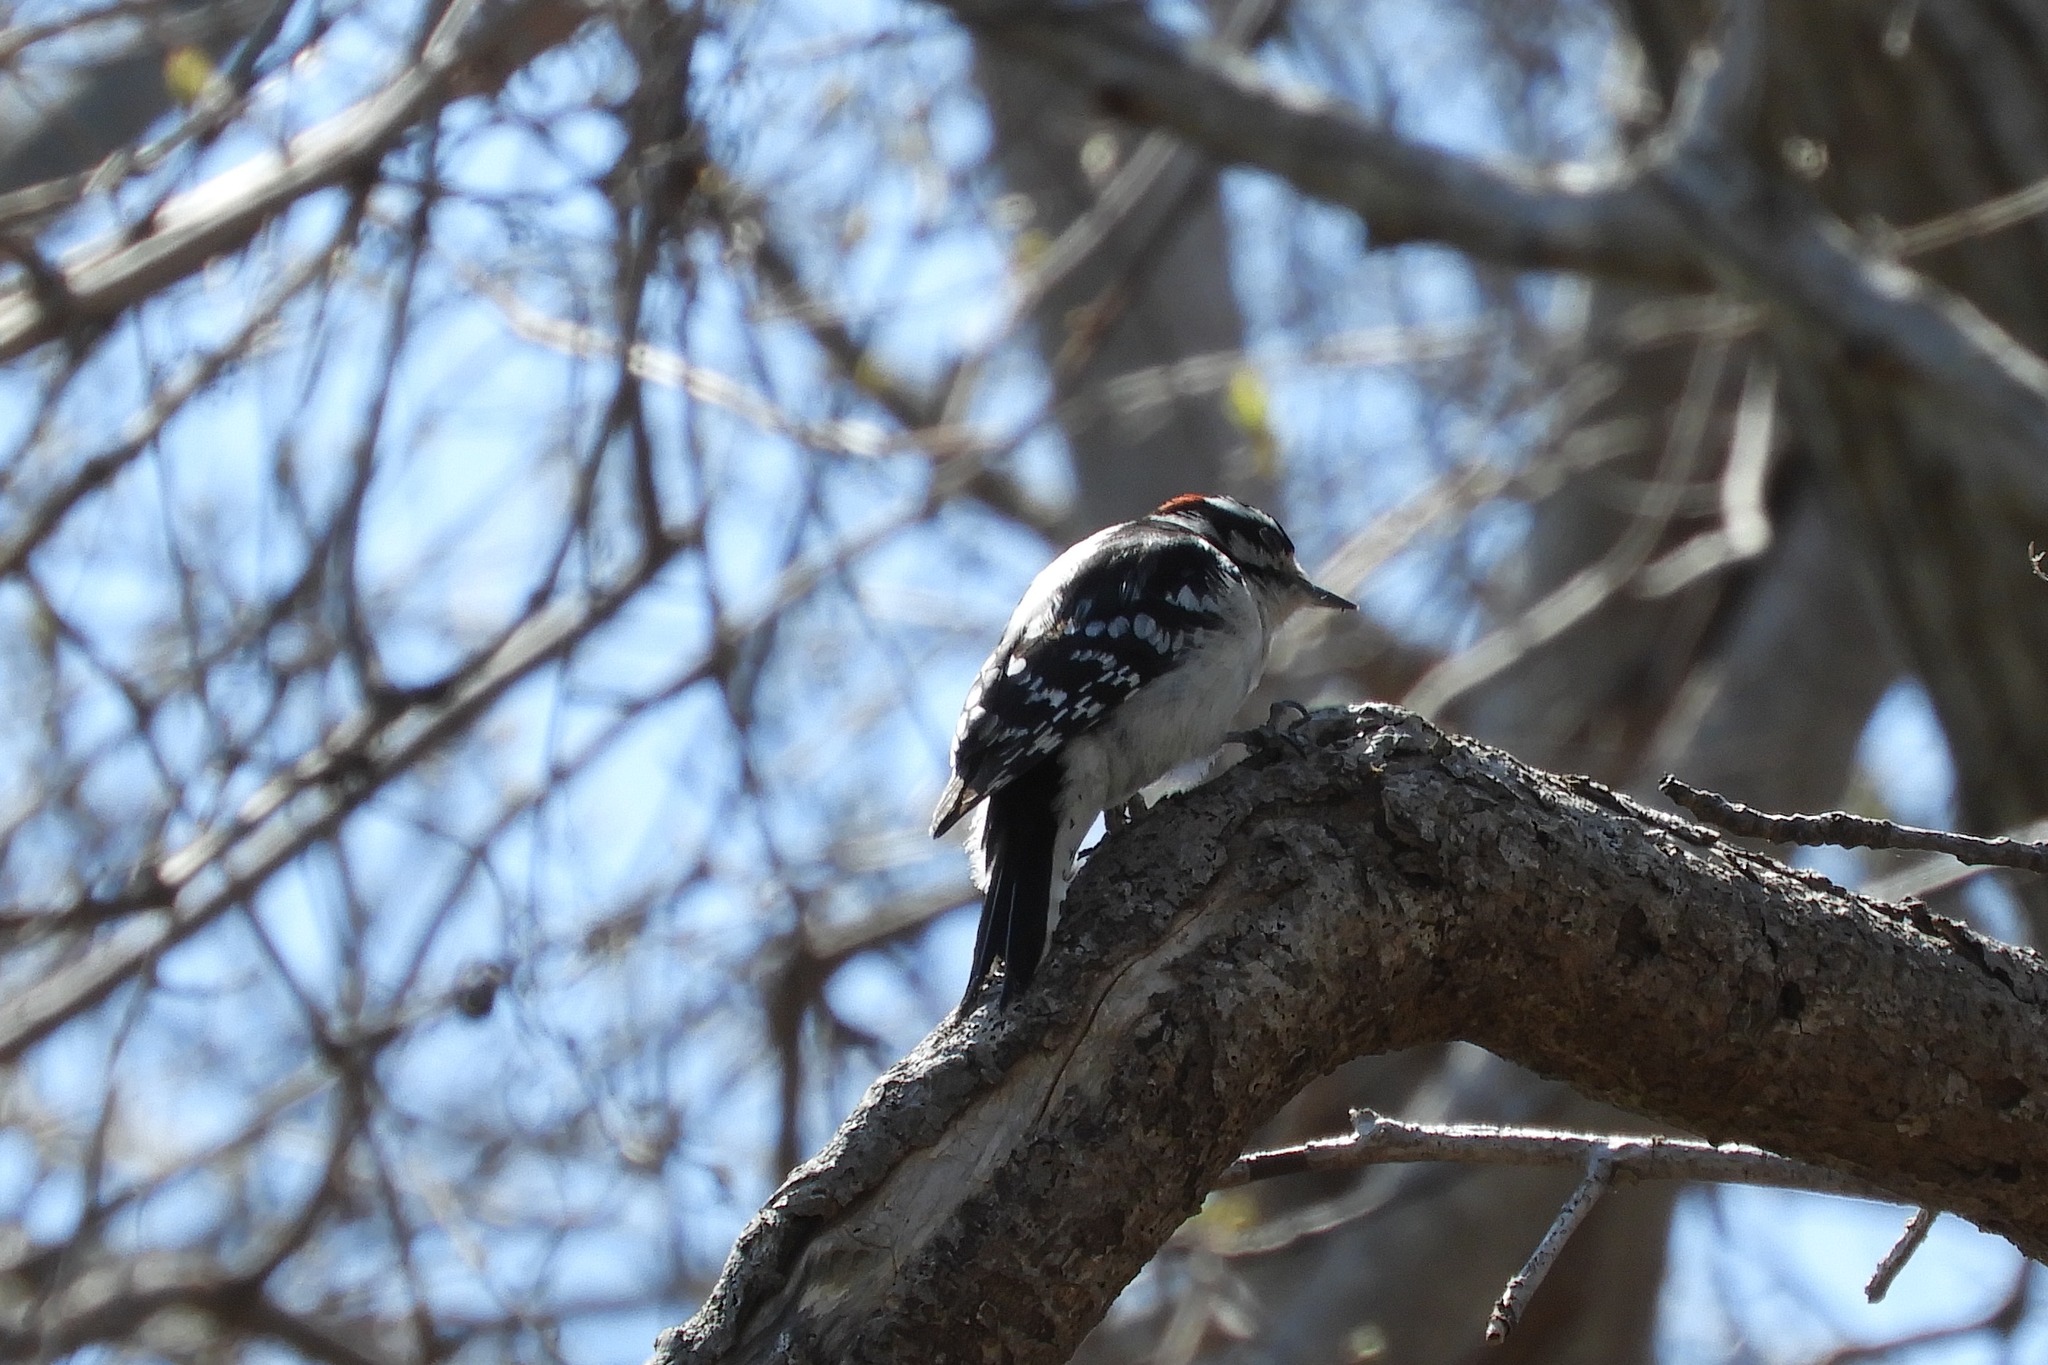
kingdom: Animalia
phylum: Chordata
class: Aves
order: Piciformes
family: Picidae
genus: Dryobates
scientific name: Dryobates pubescens
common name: Downy woodpecker
